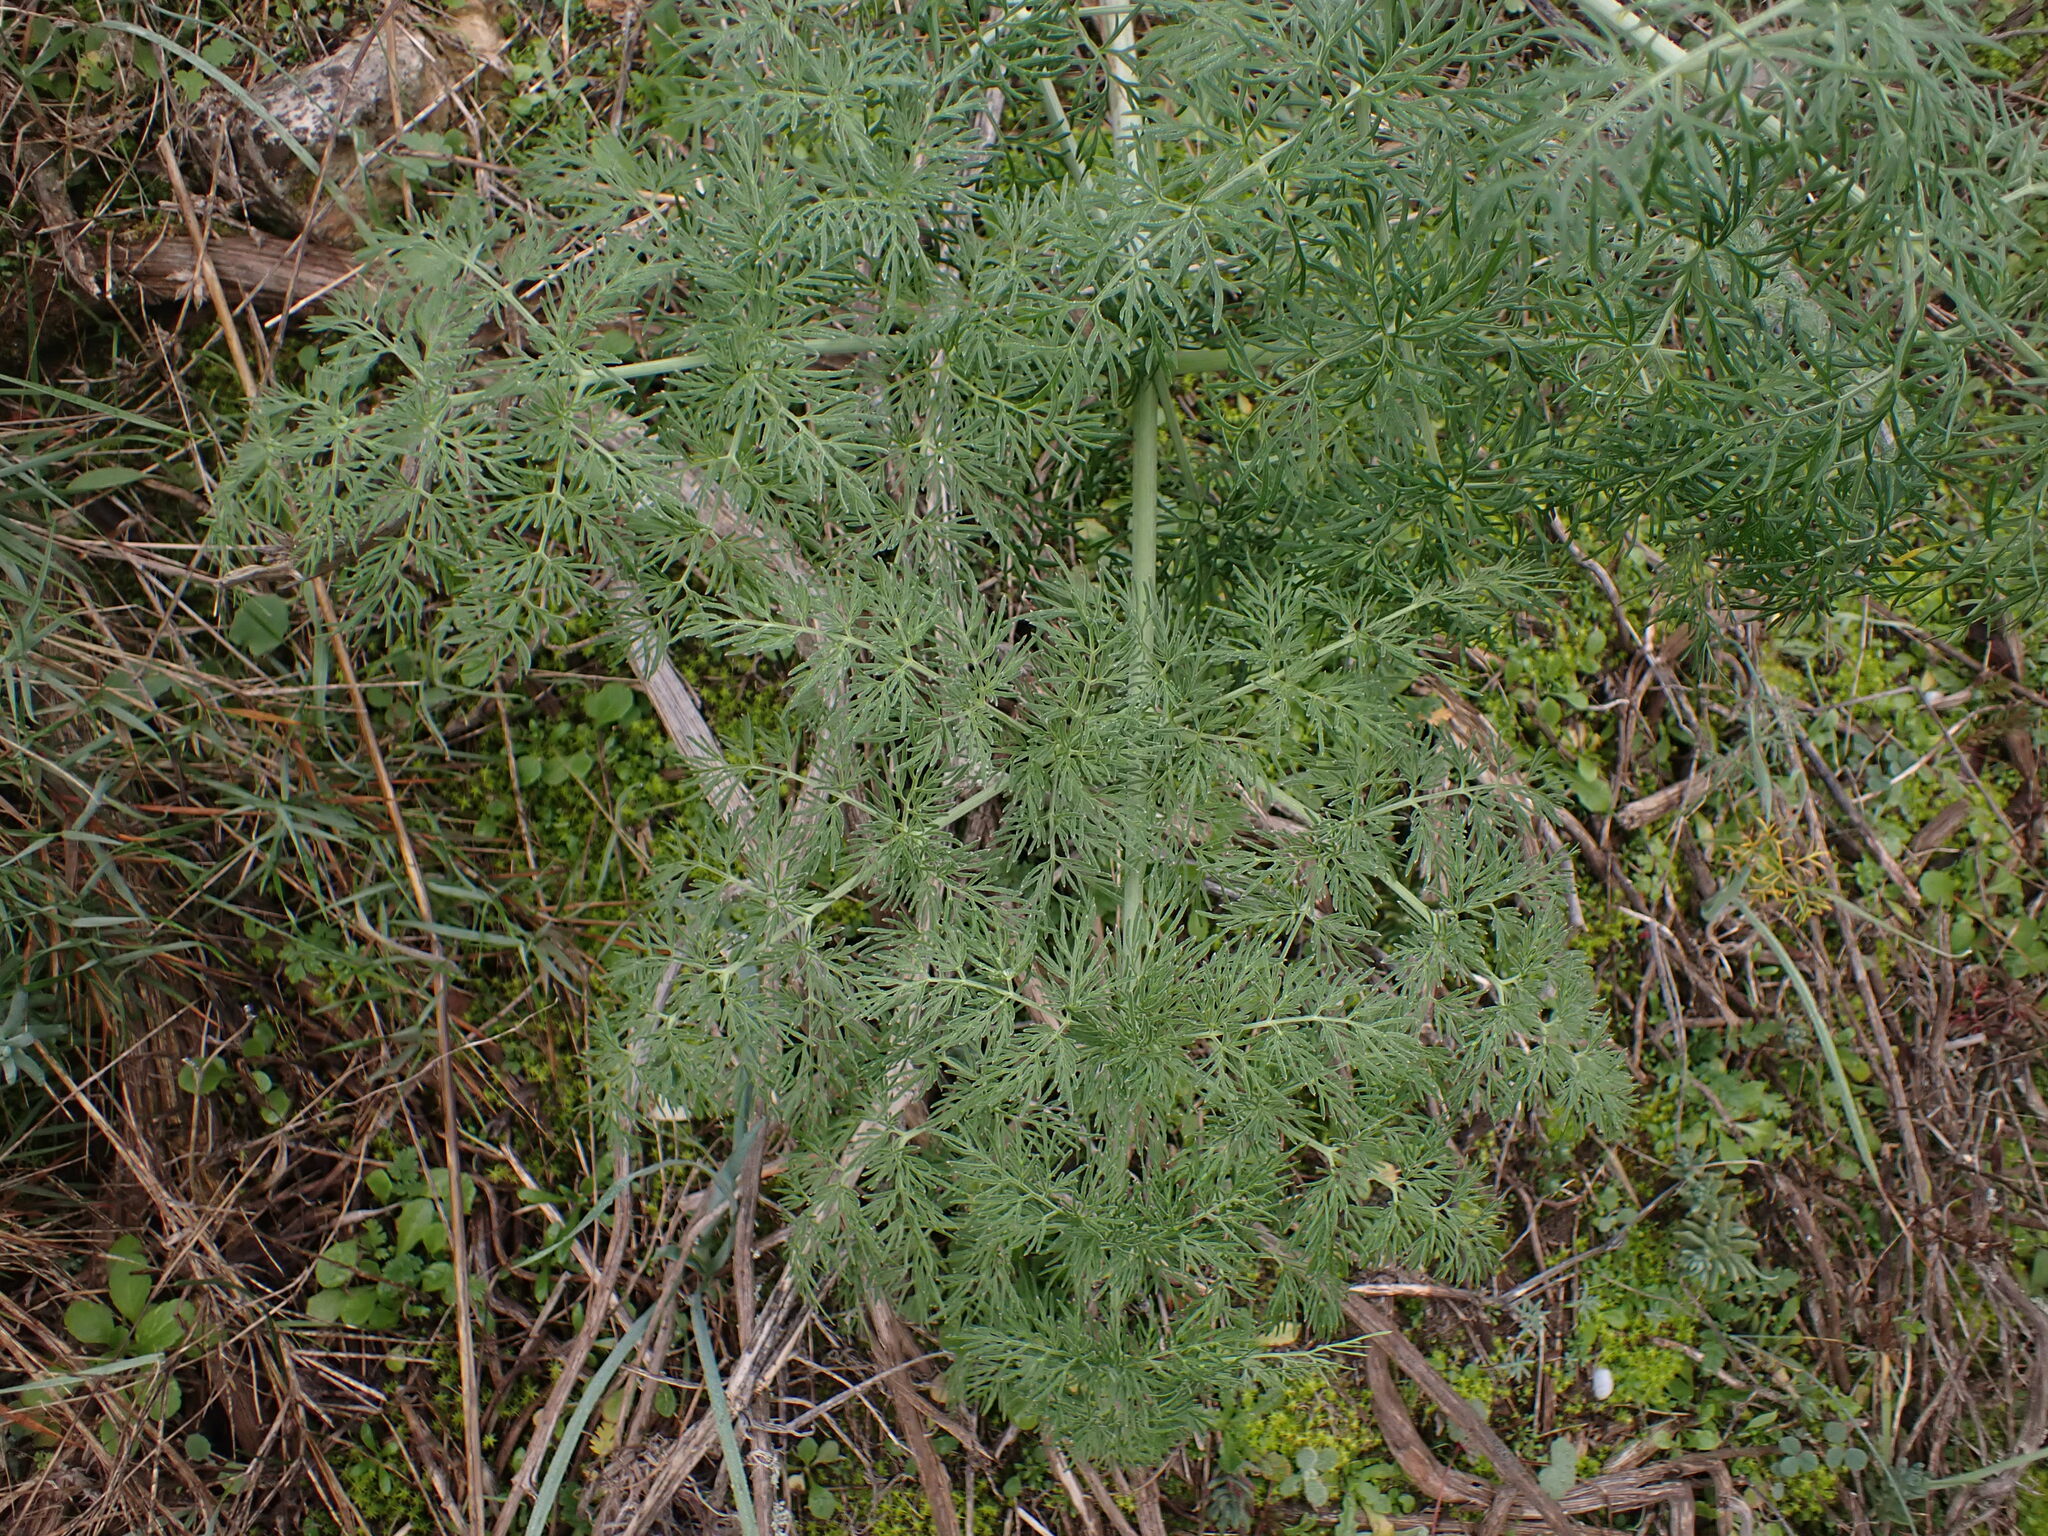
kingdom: Plantae
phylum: Tracheophyta
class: Magnoliopsida
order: Apiales
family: Apiaceae
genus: Ferula
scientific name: Ferula glauca
